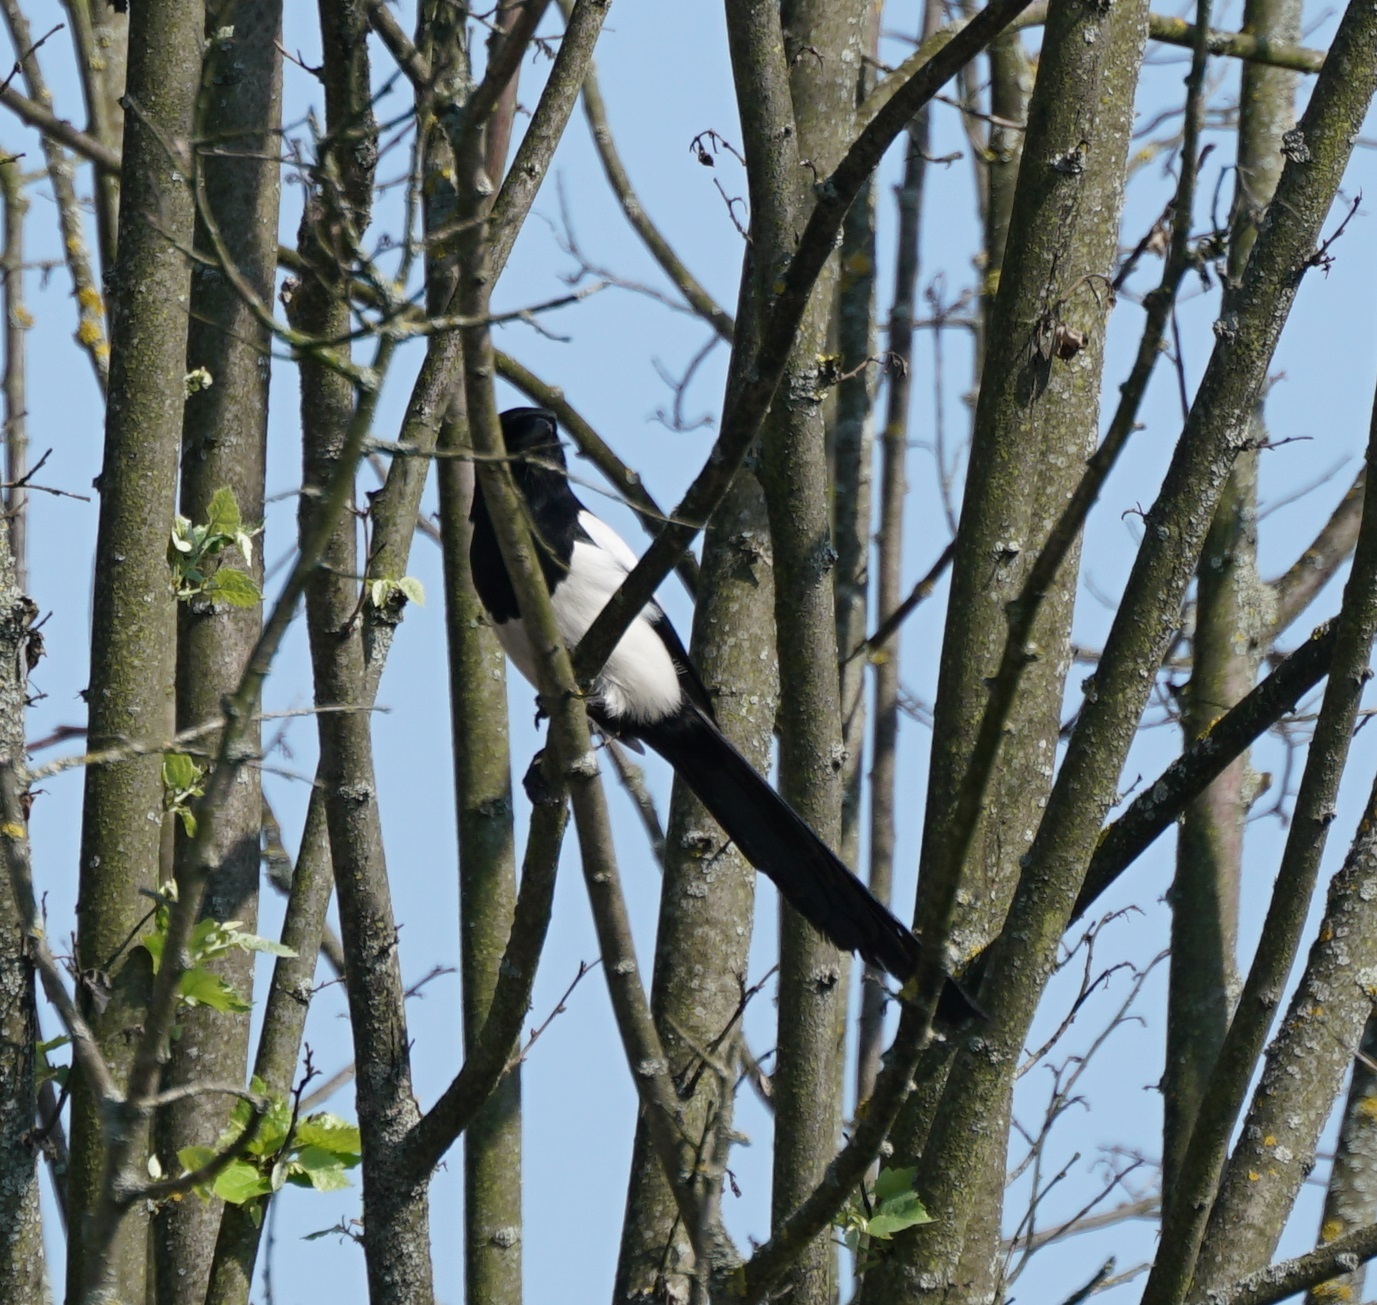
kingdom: Animalia
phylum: Chordata
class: Aves
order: Passeriformes
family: Corvidae
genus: Pica
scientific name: Pica pica
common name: Eurasian magpie
